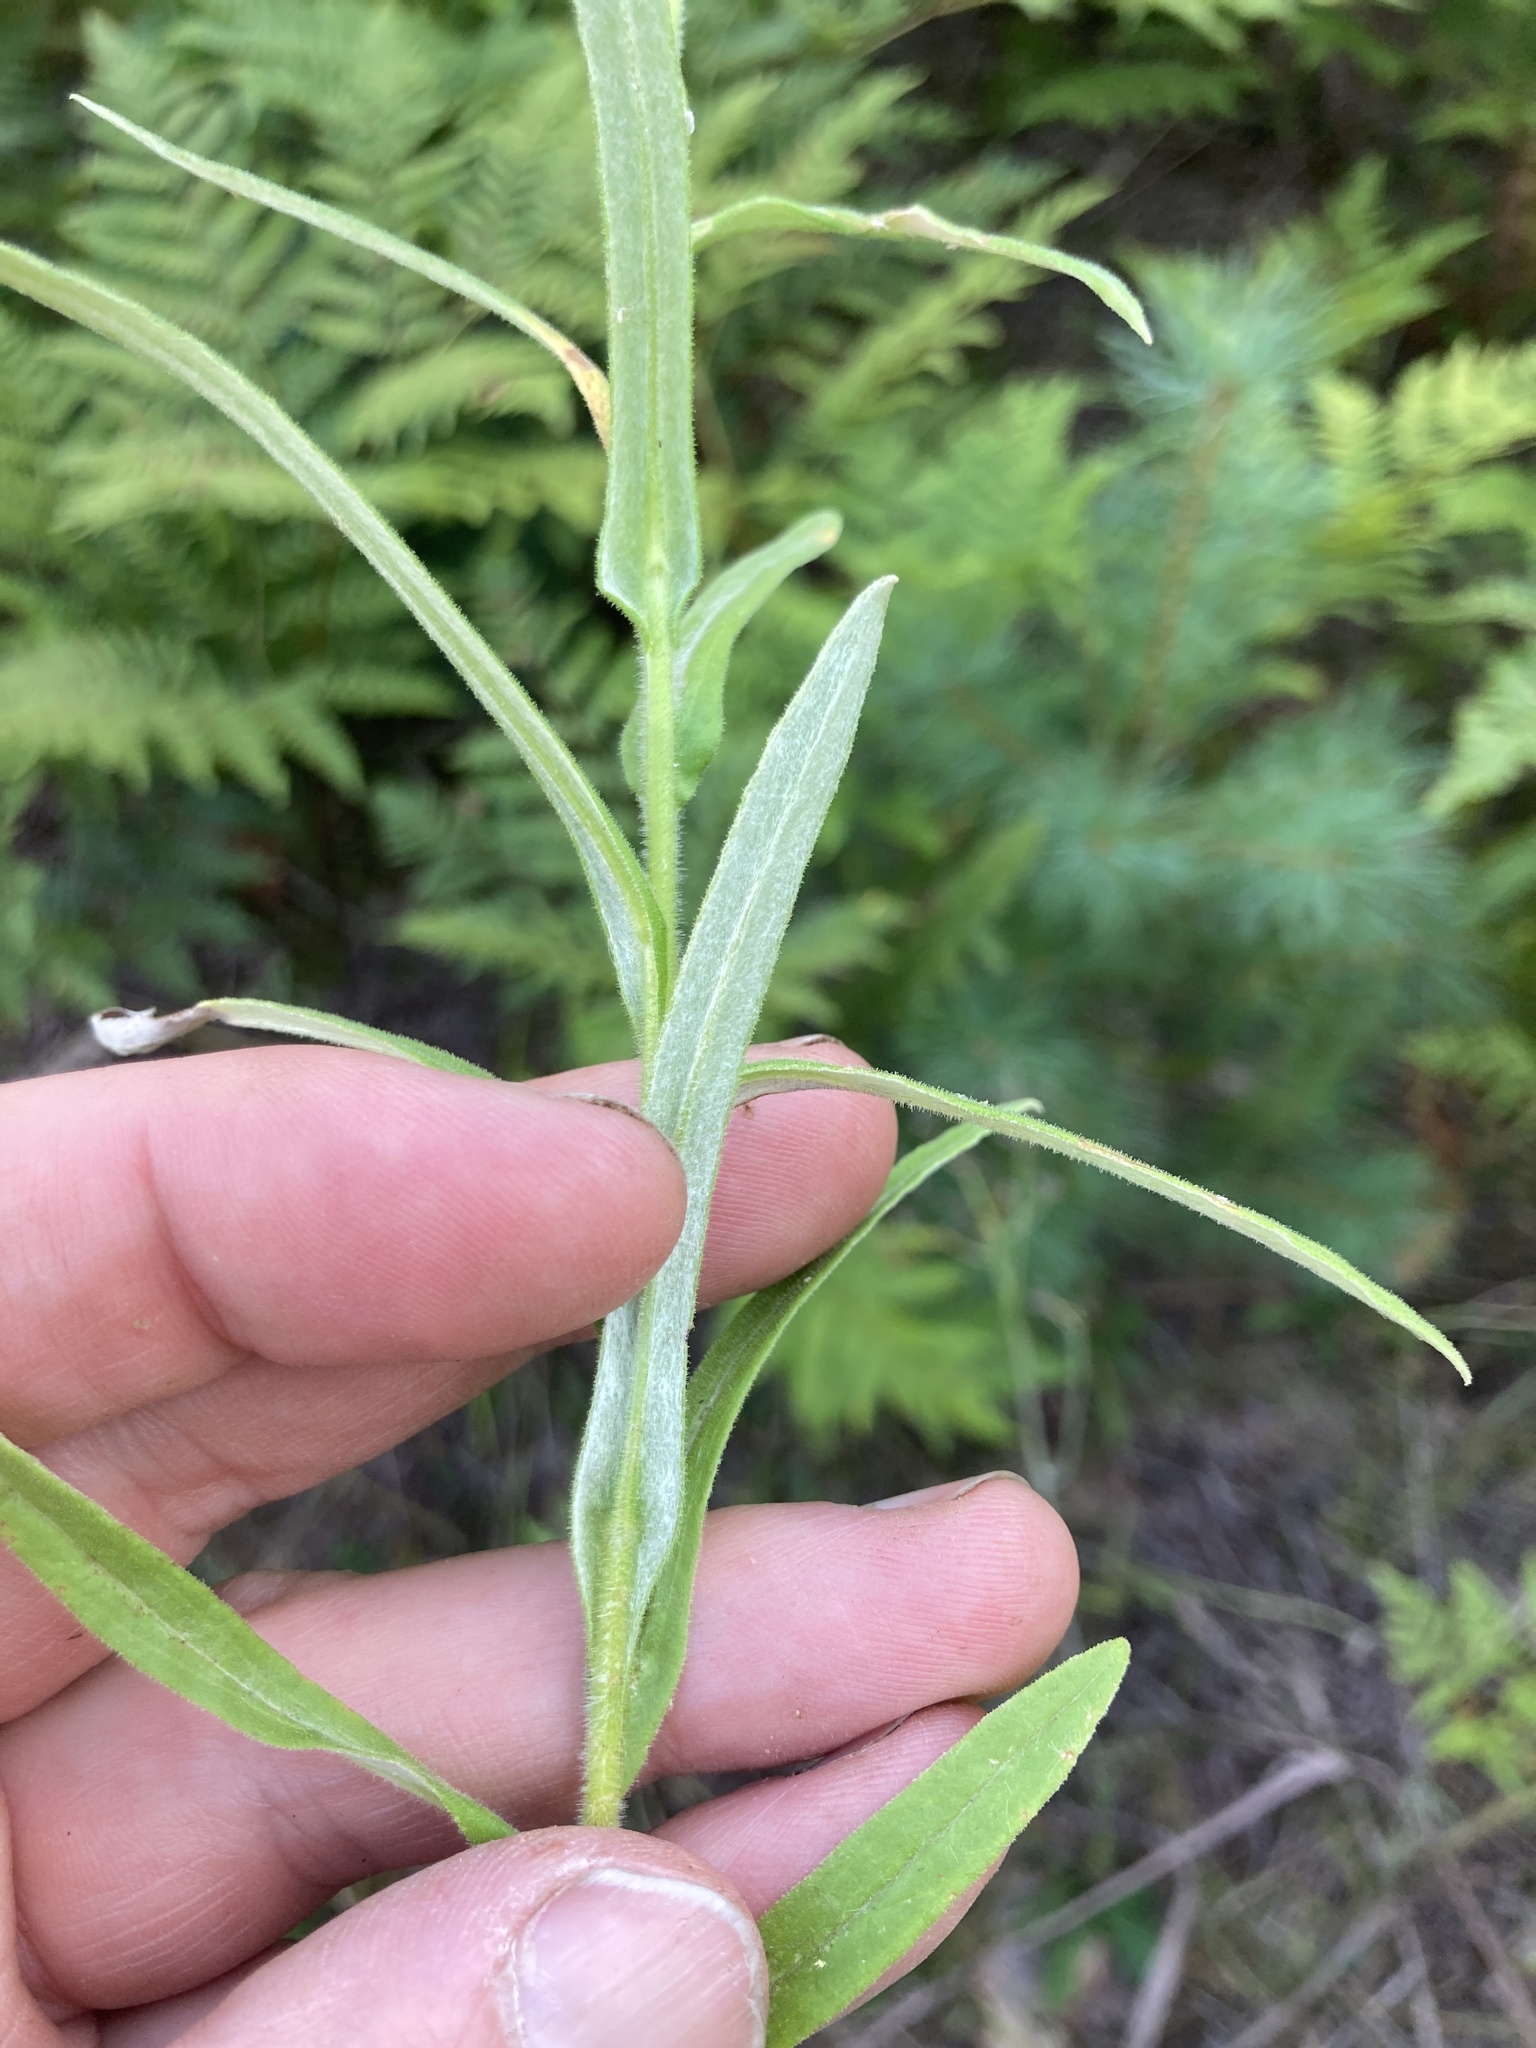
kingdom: Plantae
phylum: Tracheophyta
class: Magnoliopsida
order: Asterales
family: Asteraceae
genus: Pseudognaphalium
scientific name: Pseudognaphalium macounii
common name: Clammy cudweed
